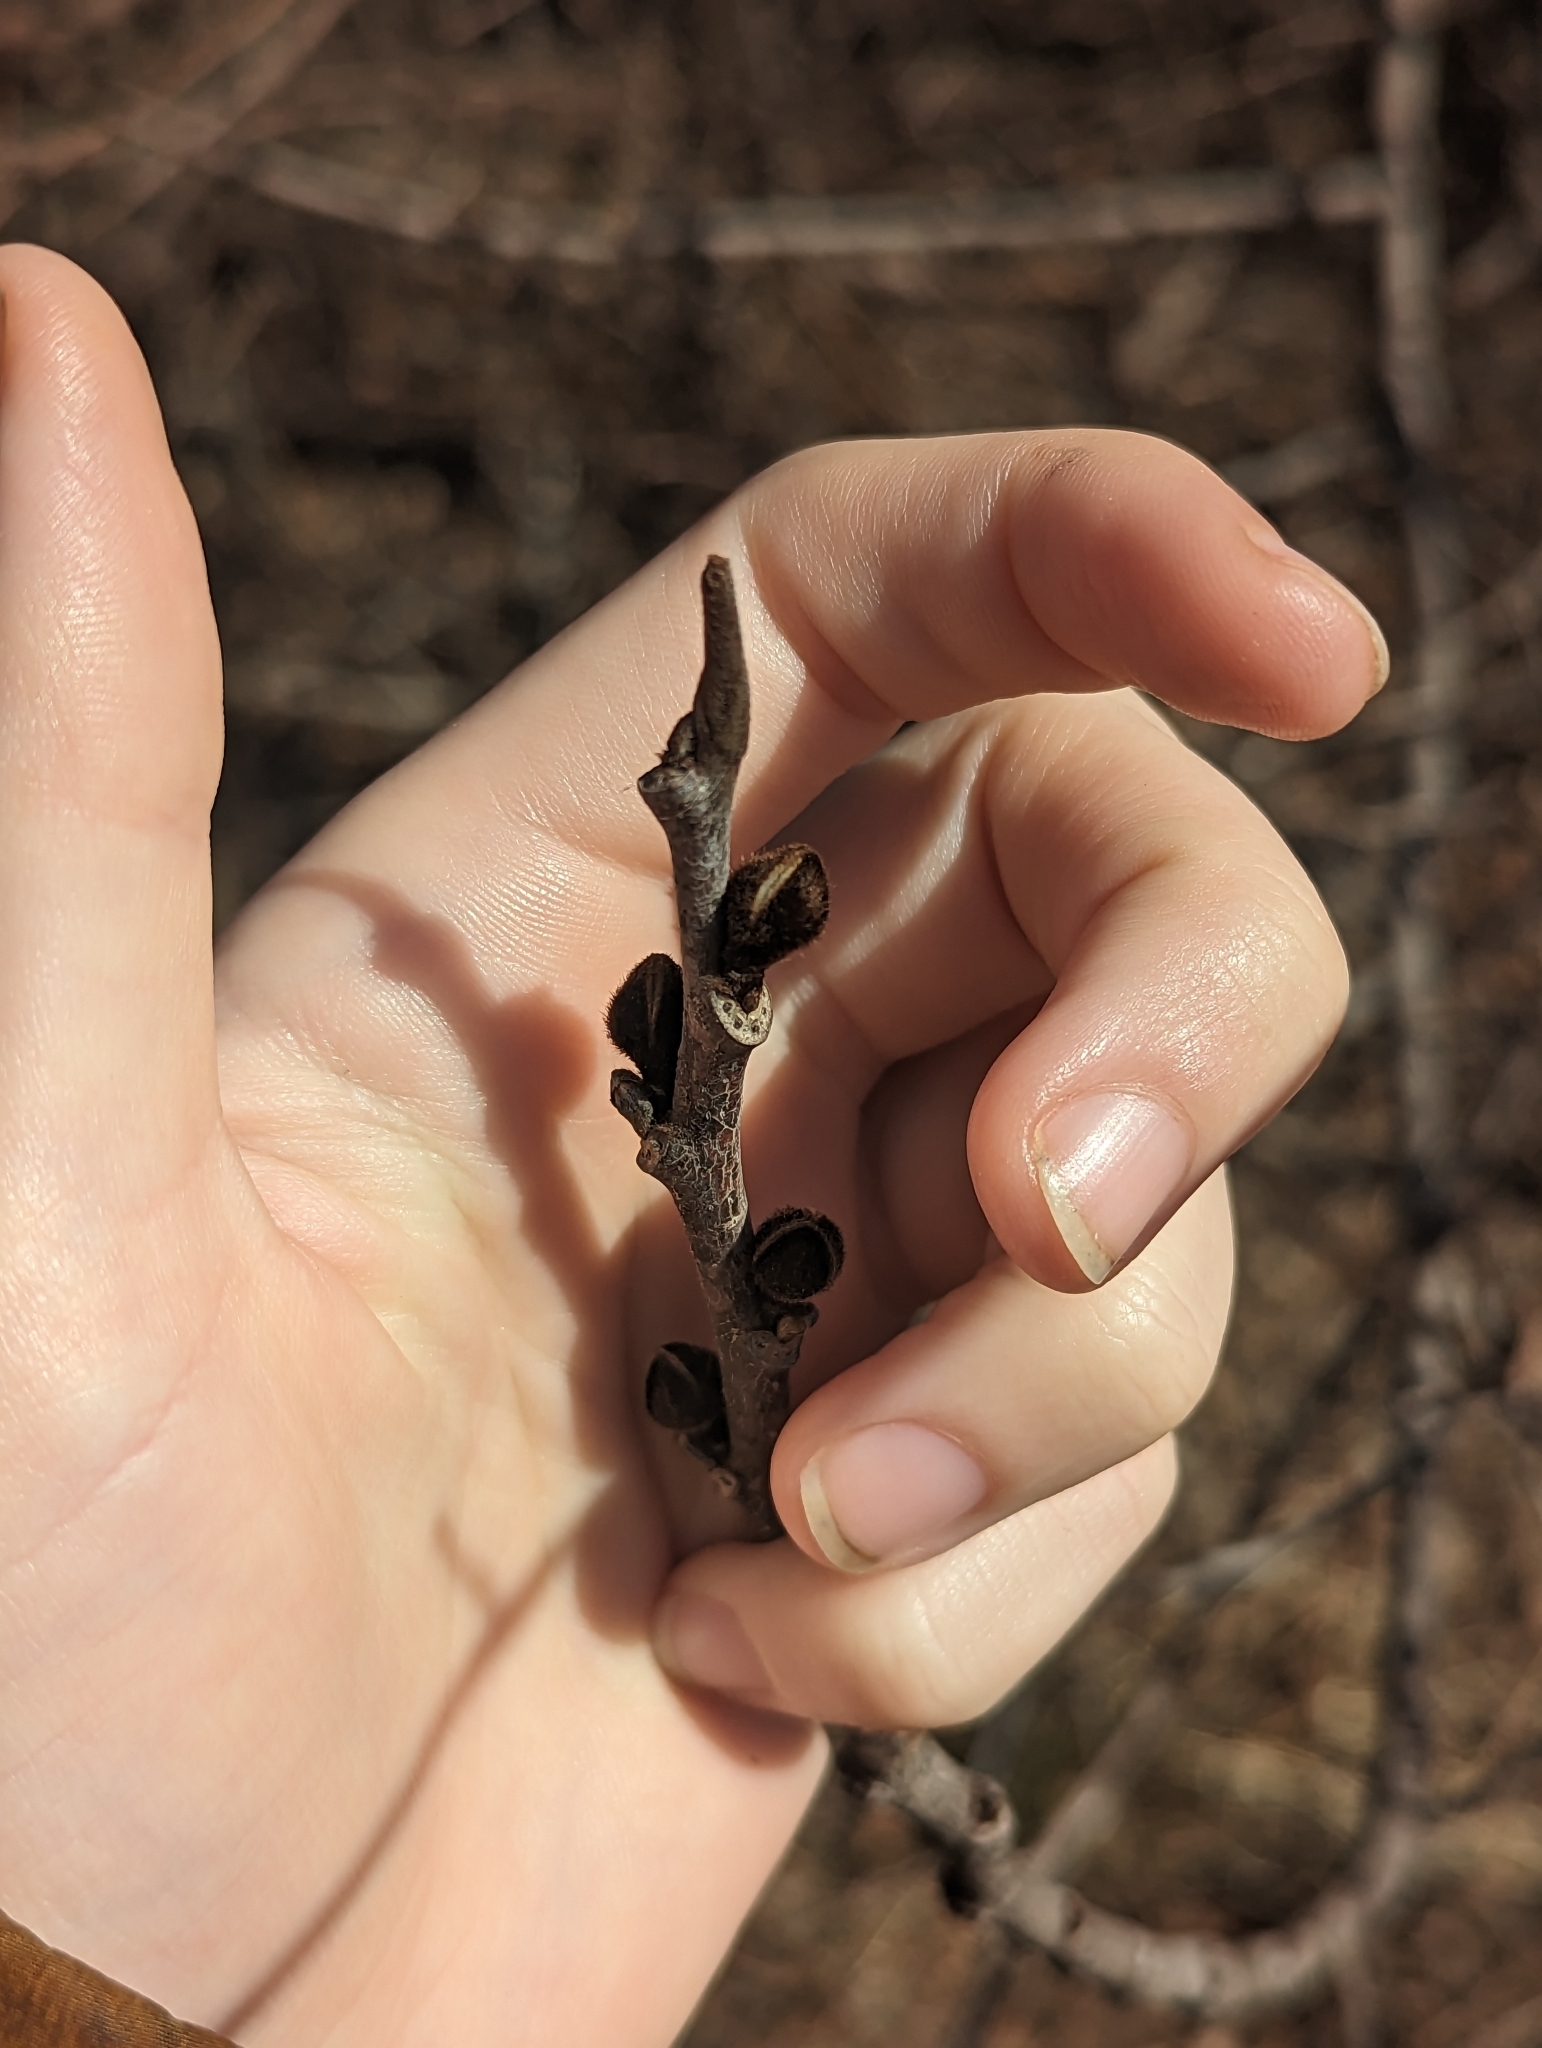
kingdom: Plantae
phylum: Tracheophyta
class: Magnoliopsida
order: Magnoliales
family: Annonaceae
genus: Asimina
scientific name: Asimina triloba
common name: Dog-banana
